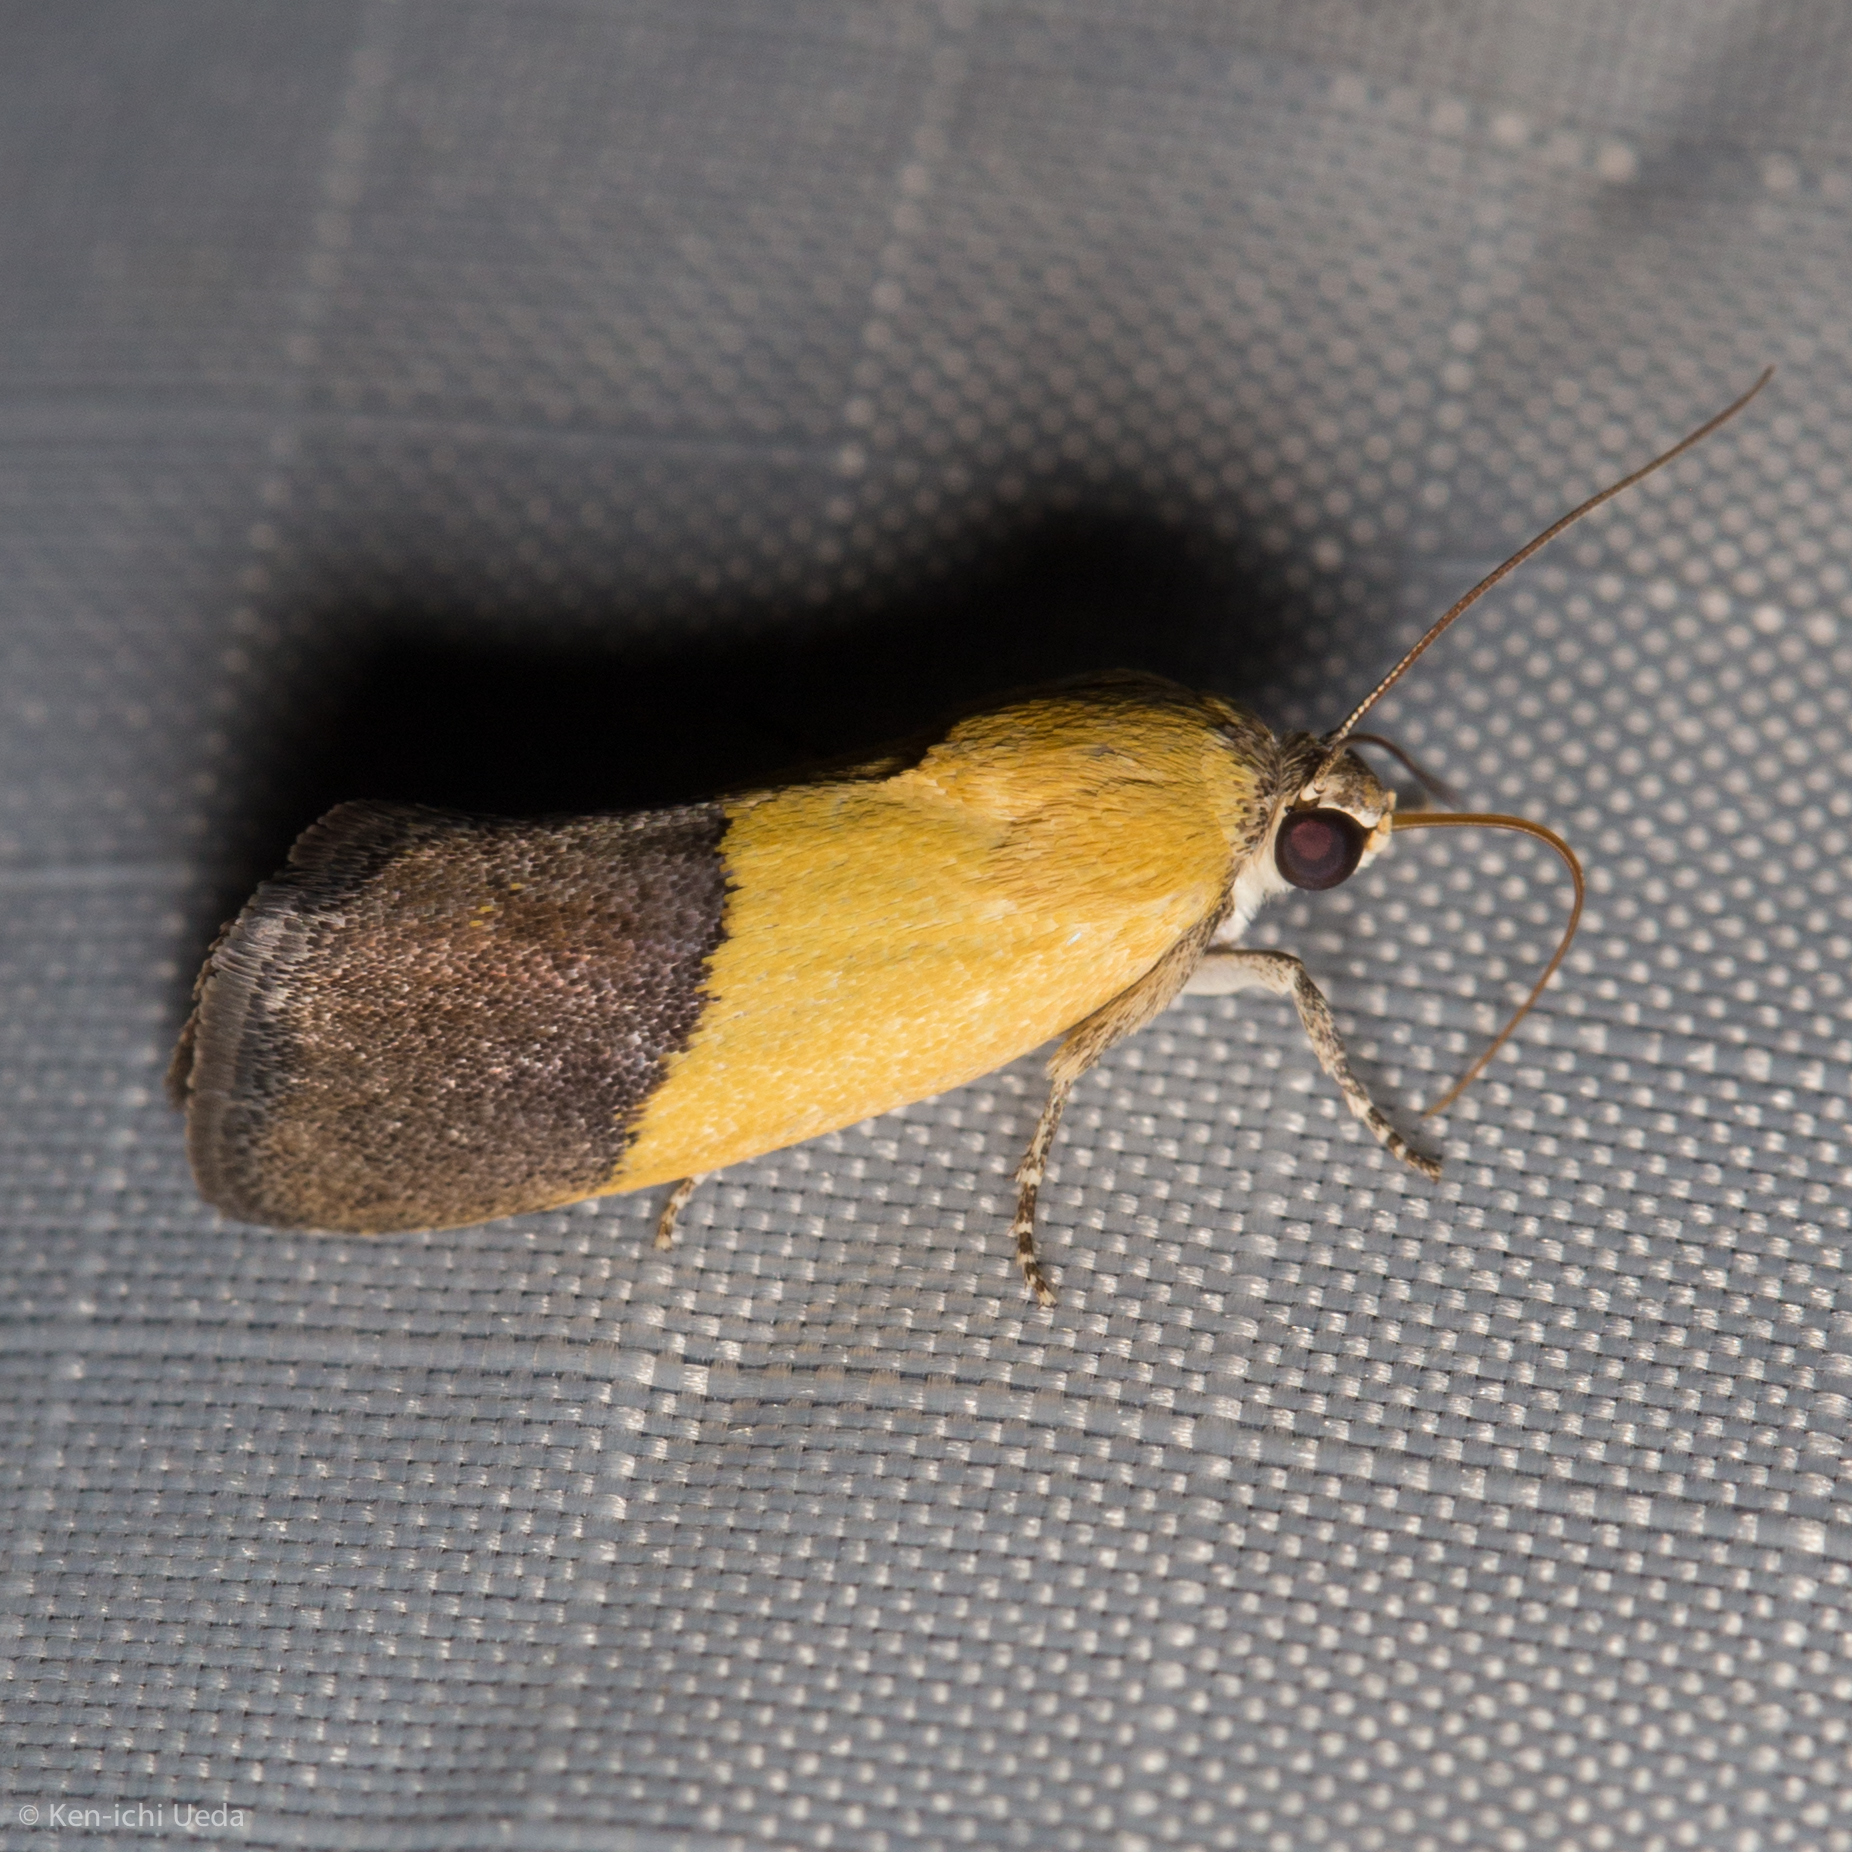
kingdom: Animalia
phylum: Arthropoda
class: Insecta
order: Lepidoptera
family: Noctuidae
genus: Acontia
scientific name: Acontia semiflava
